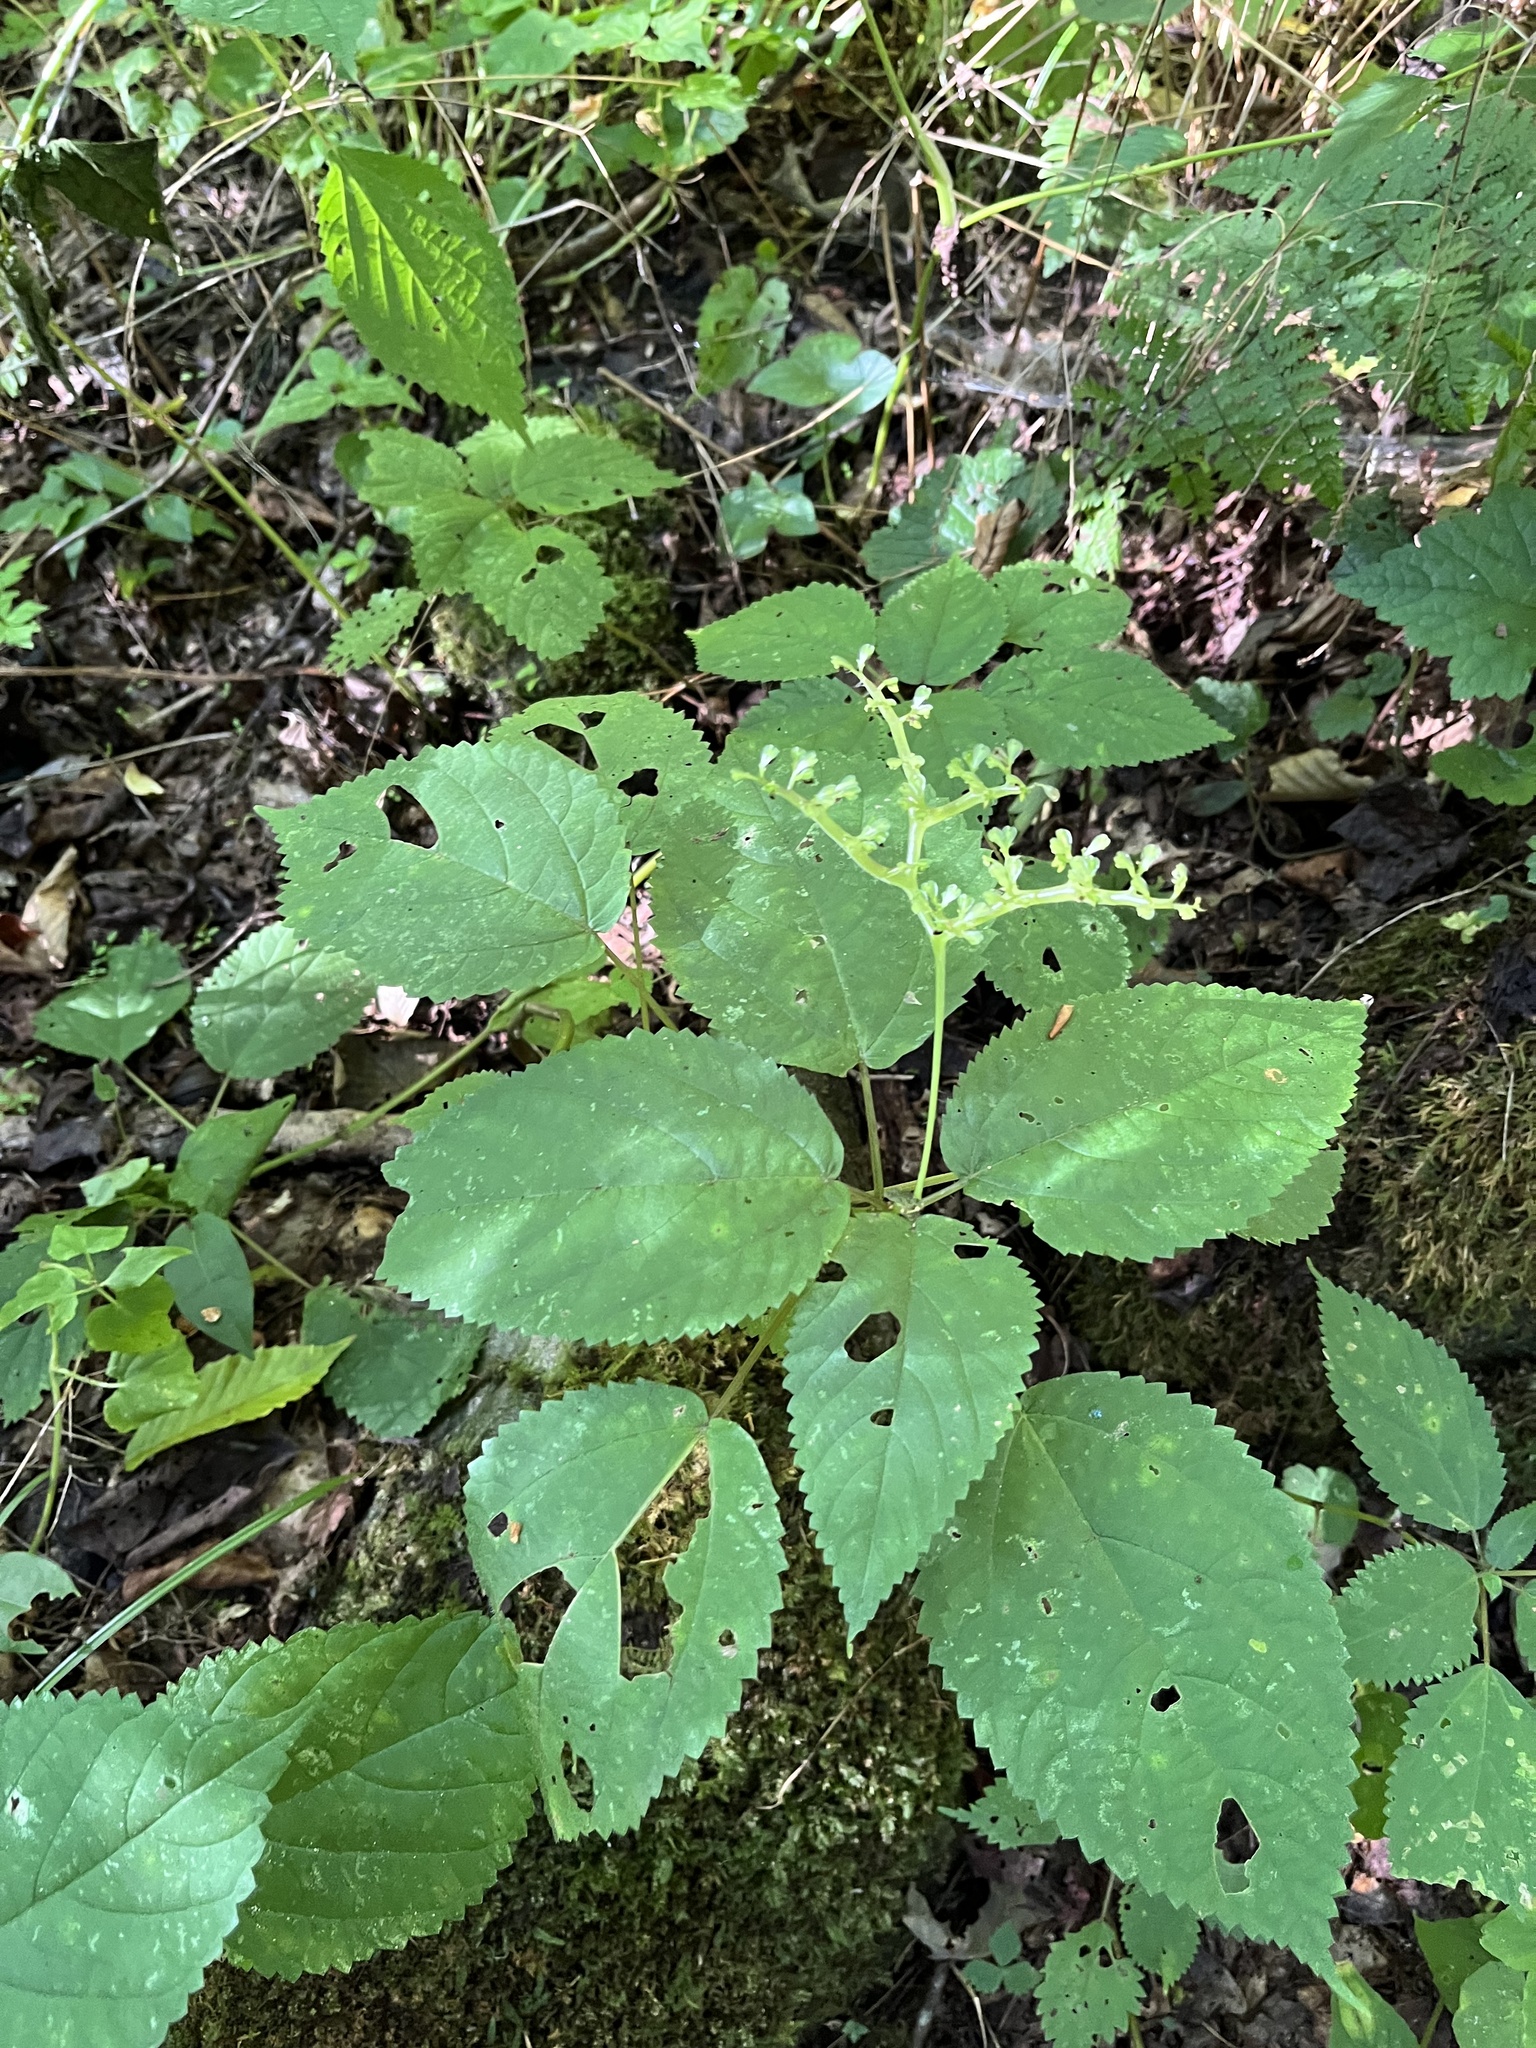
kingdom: Plantae
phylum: Tracheophyta
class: Magnoliopsida
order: Rosales
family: Urticaceae
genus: Laportea
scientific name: Laportea canadensis
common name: Canada nettle
